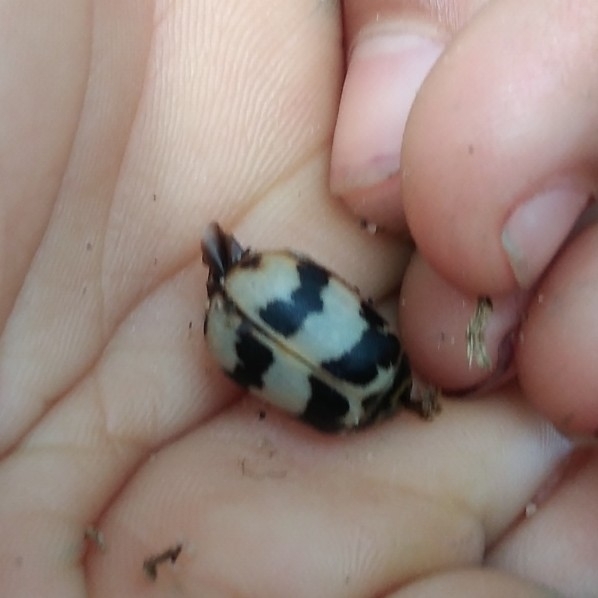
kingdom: Animalia
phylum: Arthropoda
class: Insecta
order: Coleoptera
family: Chrysomelidae
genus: Polyclada
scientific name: Polyclada
